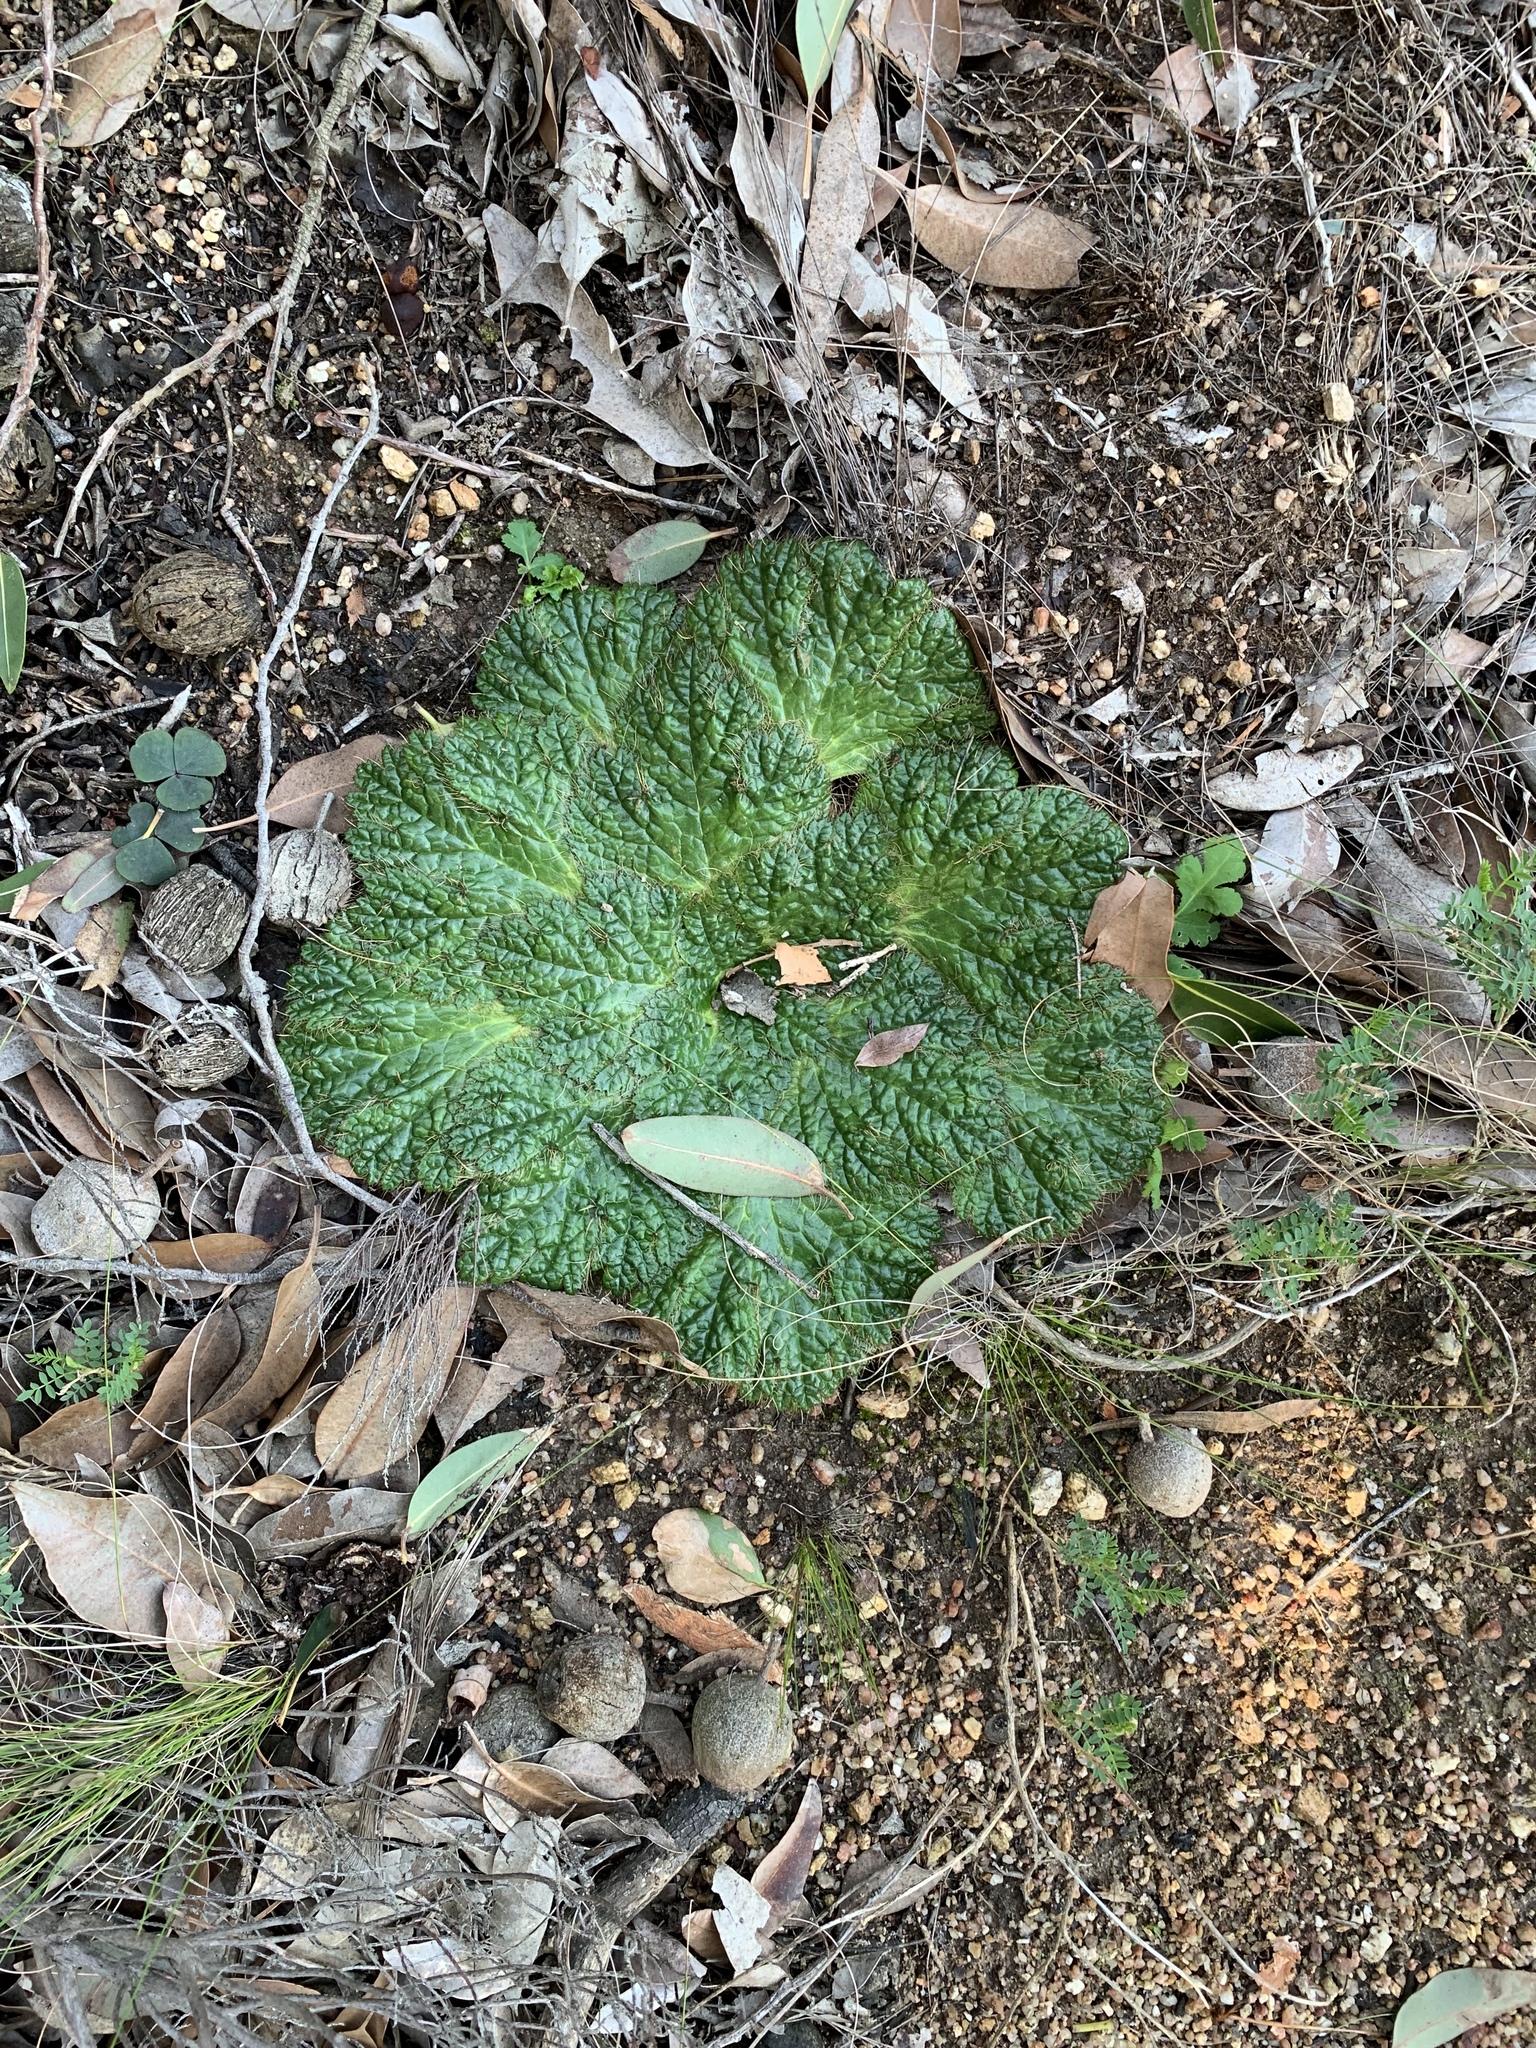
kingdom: Plantae
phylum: Tracheophyta
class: Magnoliopsida
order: Apiales
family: Apiaceae
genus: Arctopus
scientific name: Arctopus echinatus
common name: Platdoring
